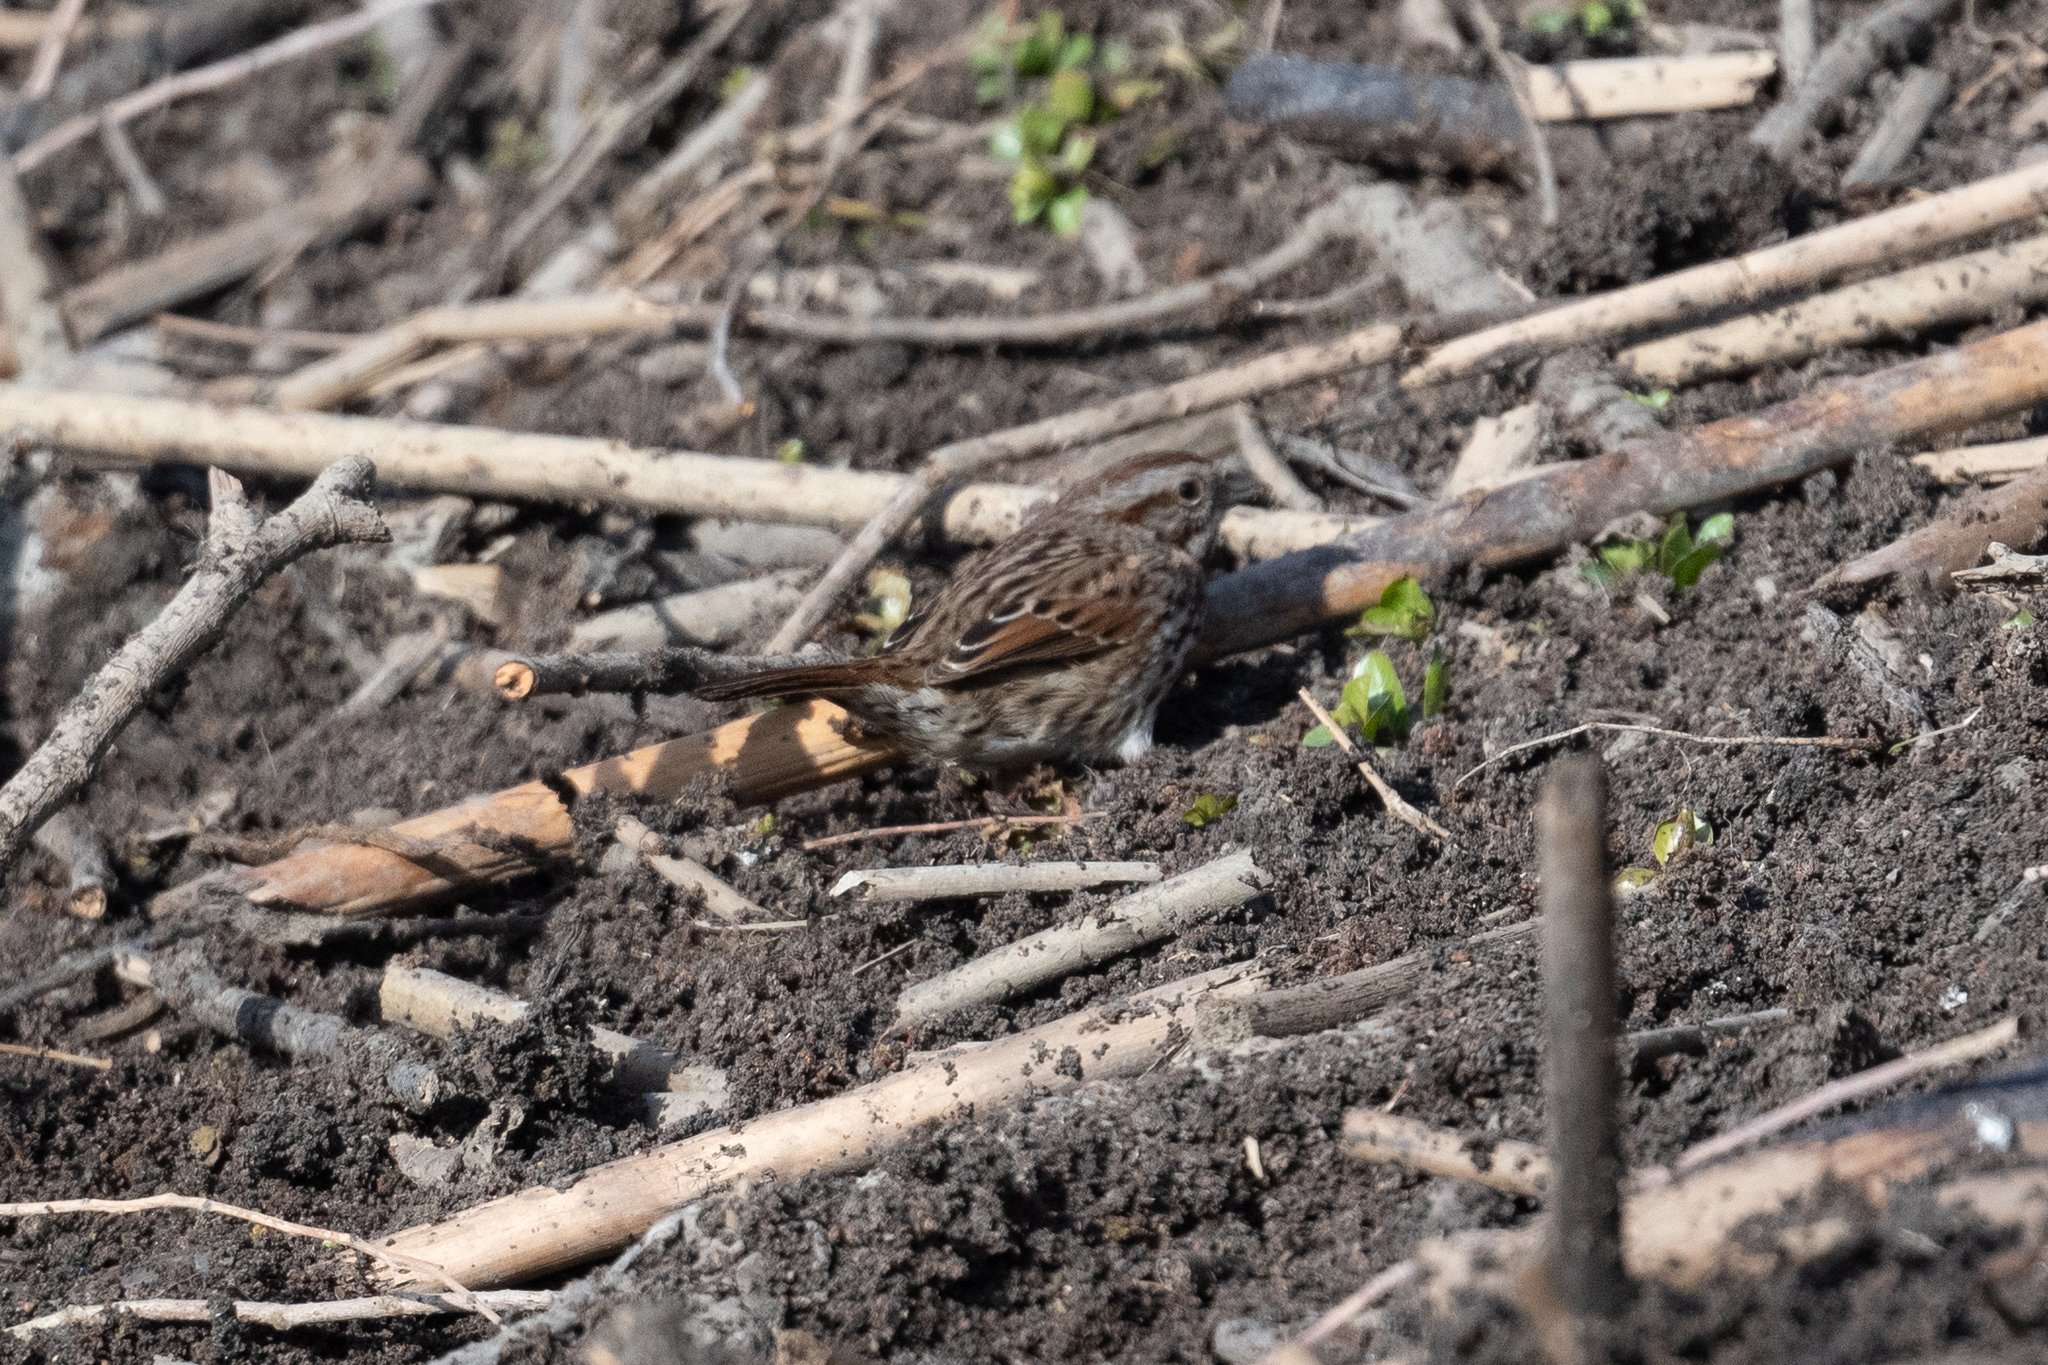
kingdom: Animalia
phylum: Chordata
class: Aves
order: Passeriformes
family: Passerellidae
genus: Melospiza
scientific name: Melospiza melodia
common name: Song sparrow
